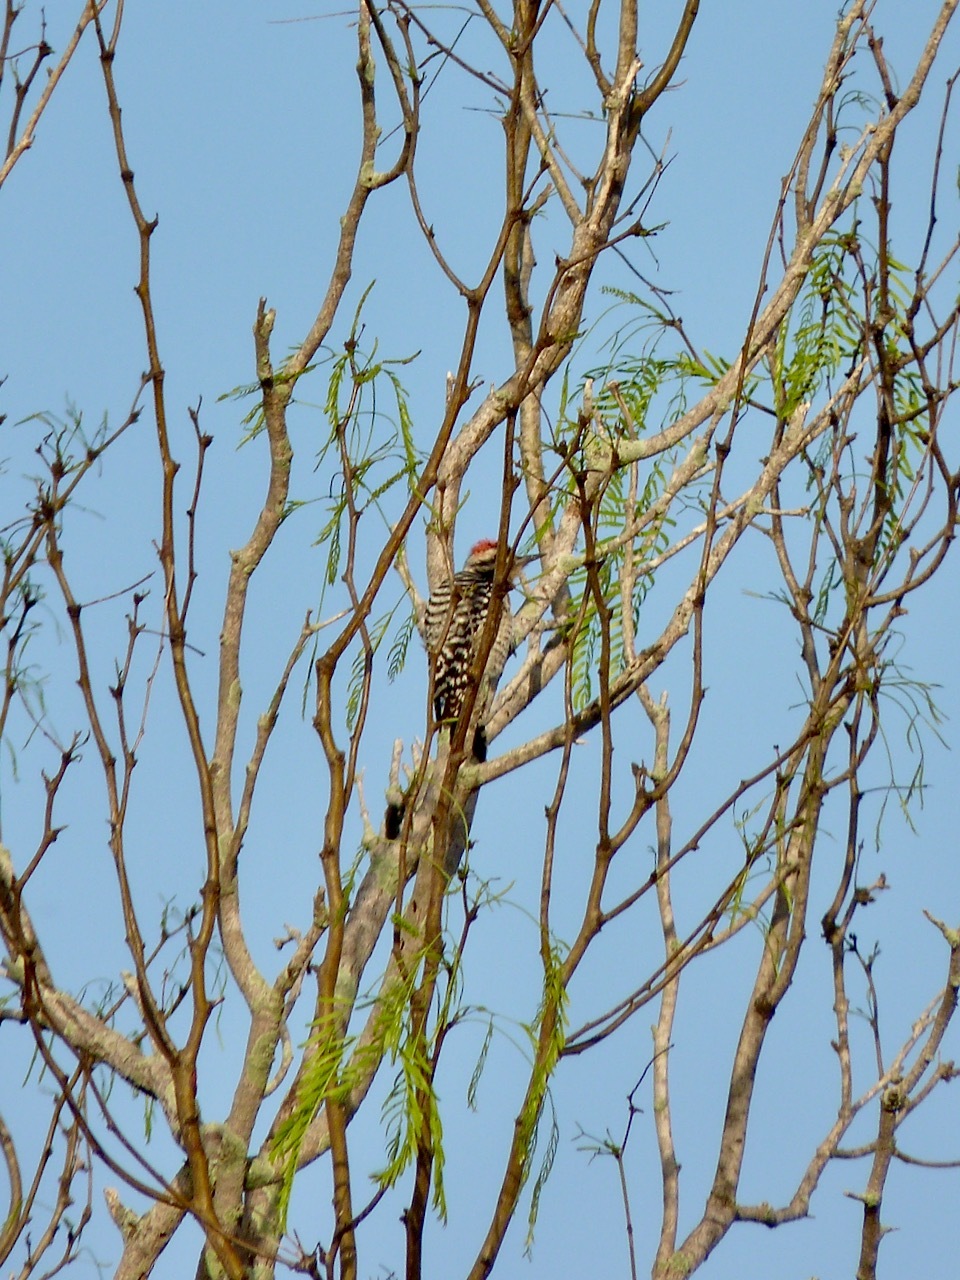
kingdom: Animalia
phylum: Chordata
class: Aves
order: Piciformes
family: Picidae
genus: Dryobates
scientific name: Dryobates scalaris
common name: Ladder-backed woodpecker
